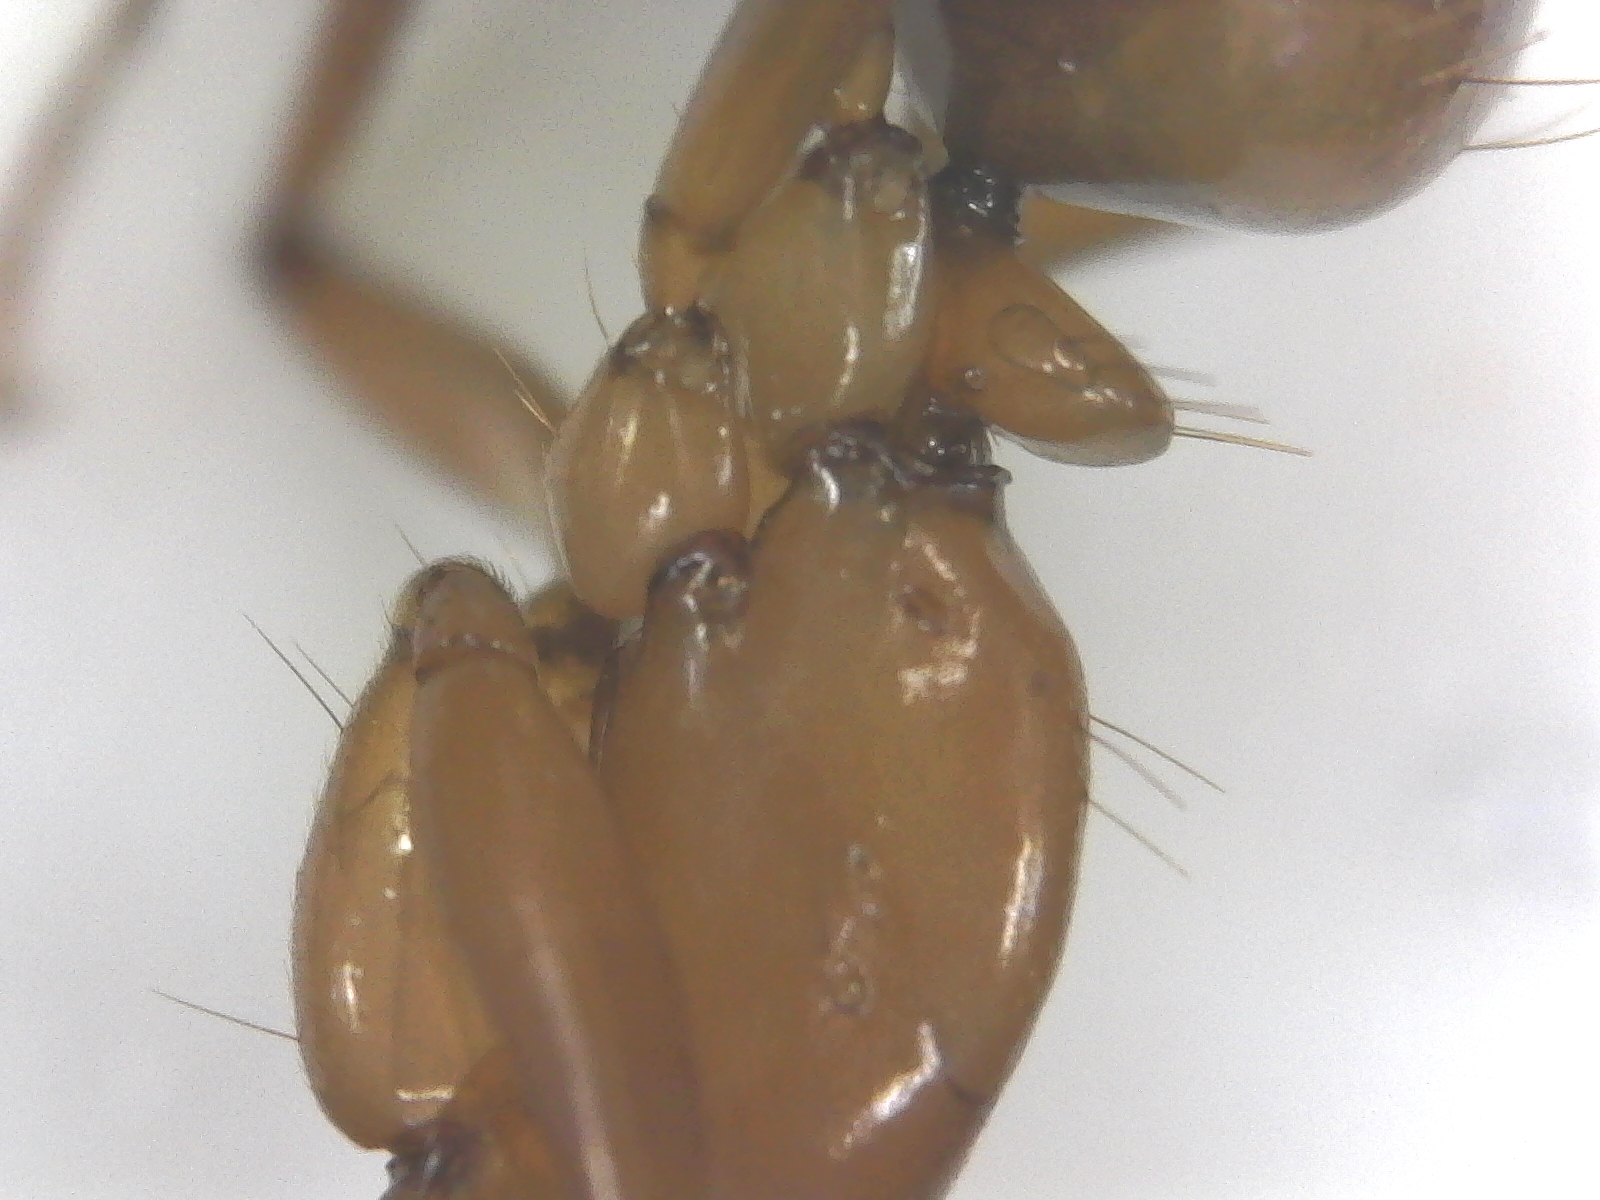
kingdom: Animalia
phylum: Arthropoda
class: Insecta
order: Hymenoptera
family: Formicidae
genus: Camponotus
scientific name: Camponotus castaneus
